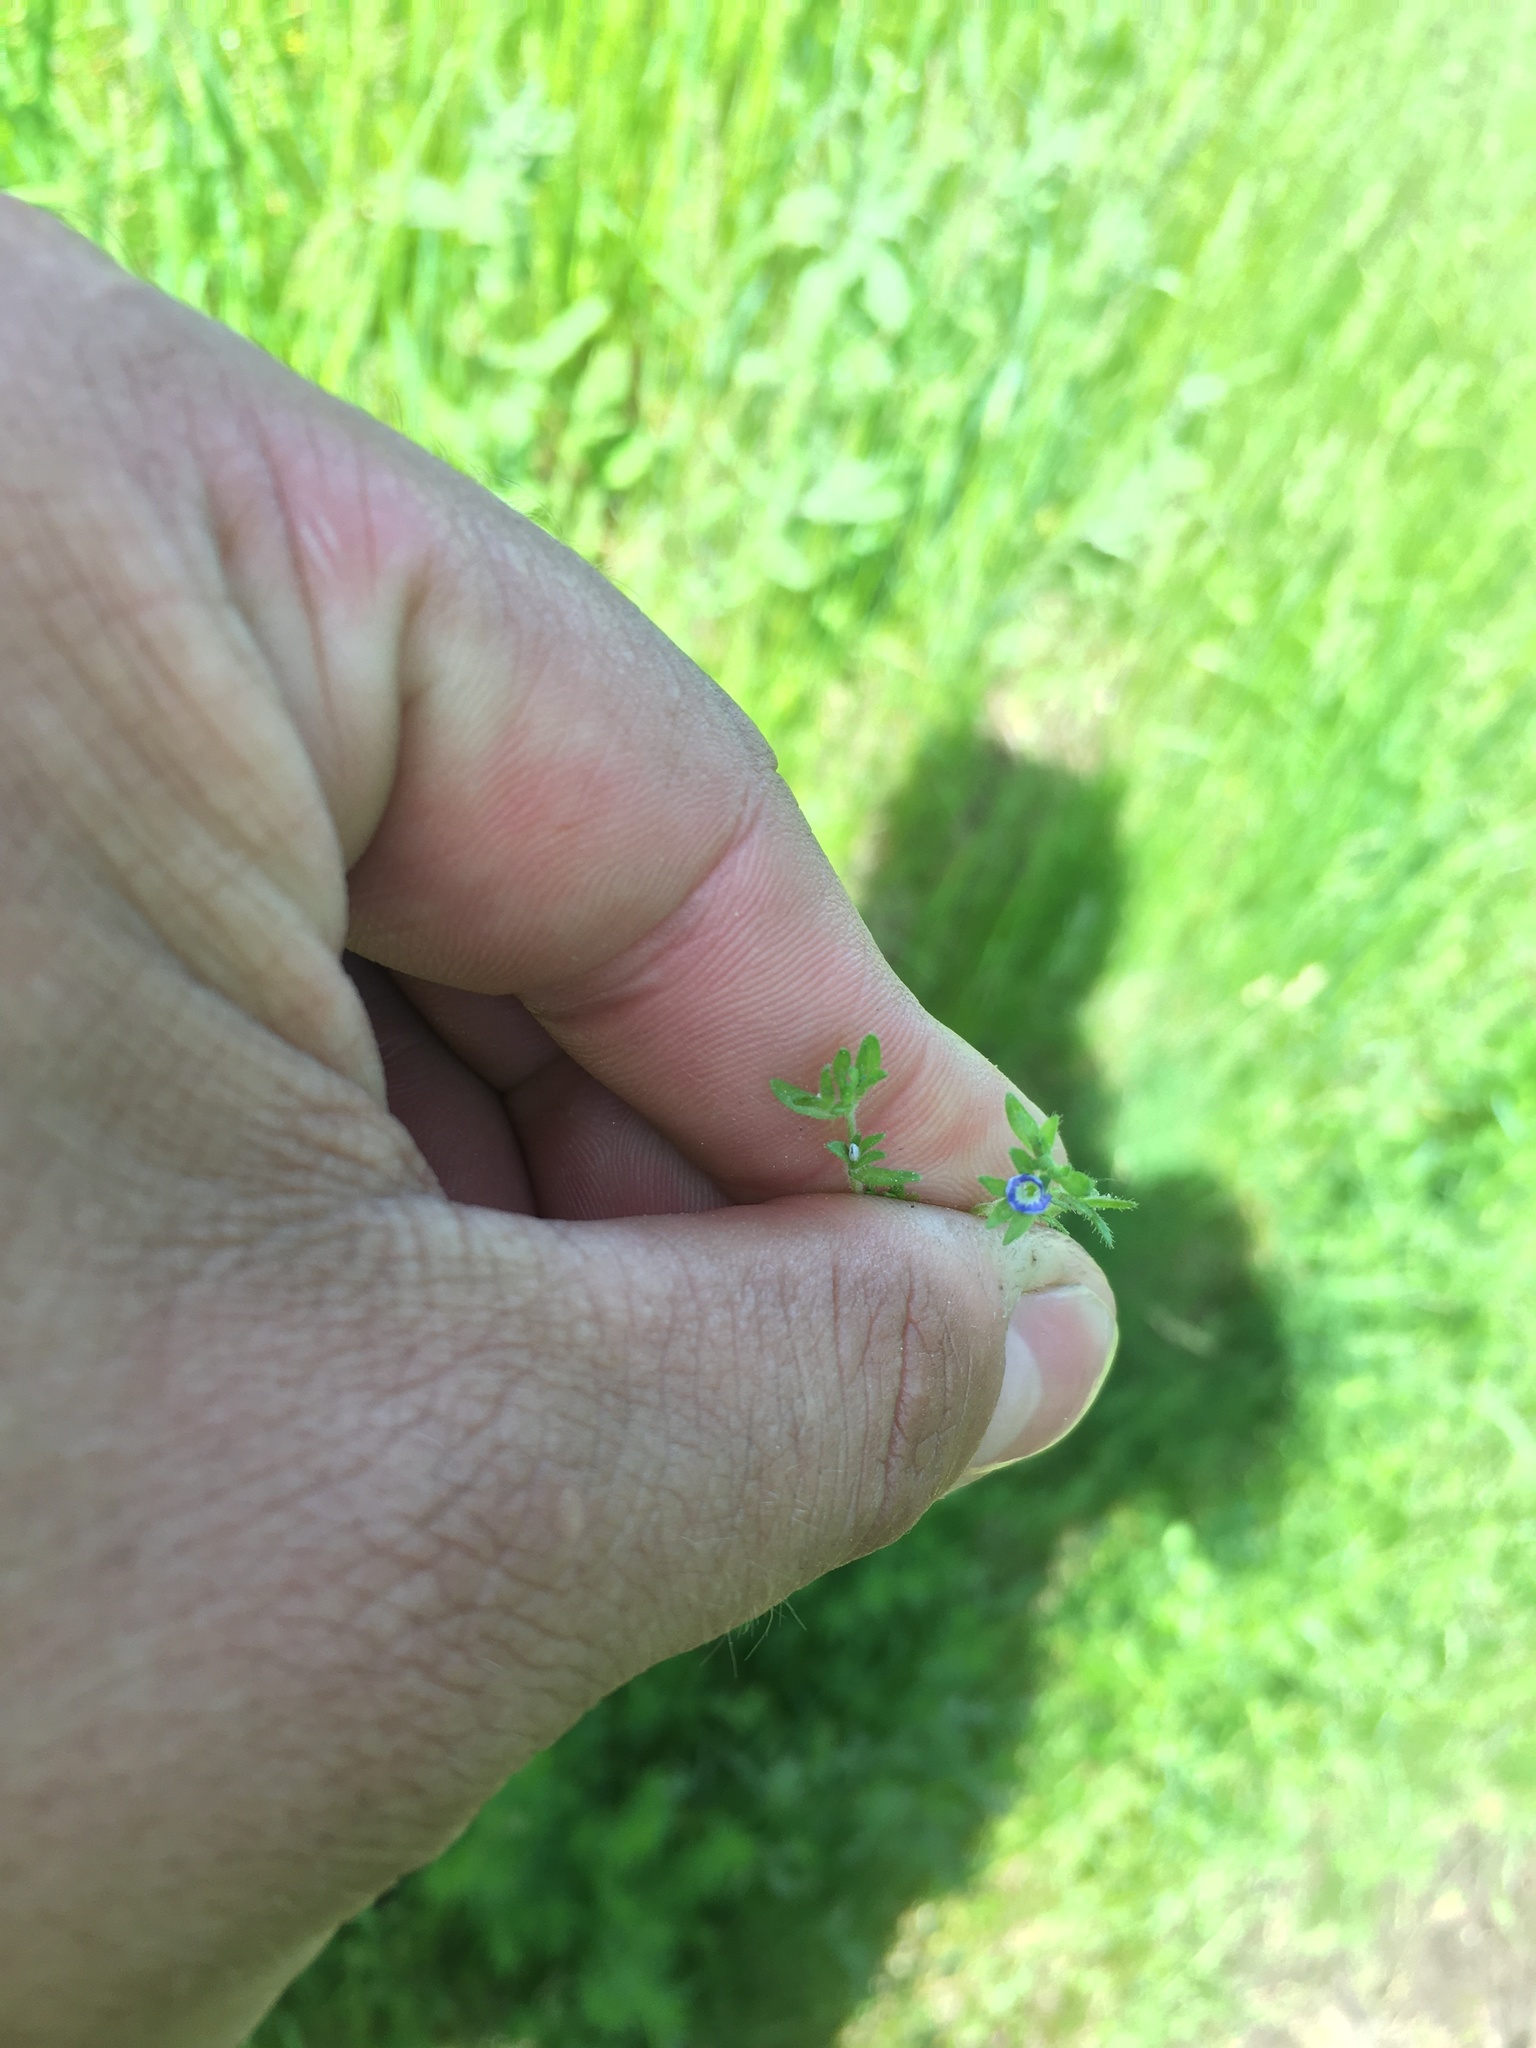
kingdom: Plantae
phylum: Tracheophyta
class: Magnoliopsida
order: Lamiales
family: Plantaginaceae
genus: Veronica
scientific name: Veronica arvensis
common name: Corn speedwell
